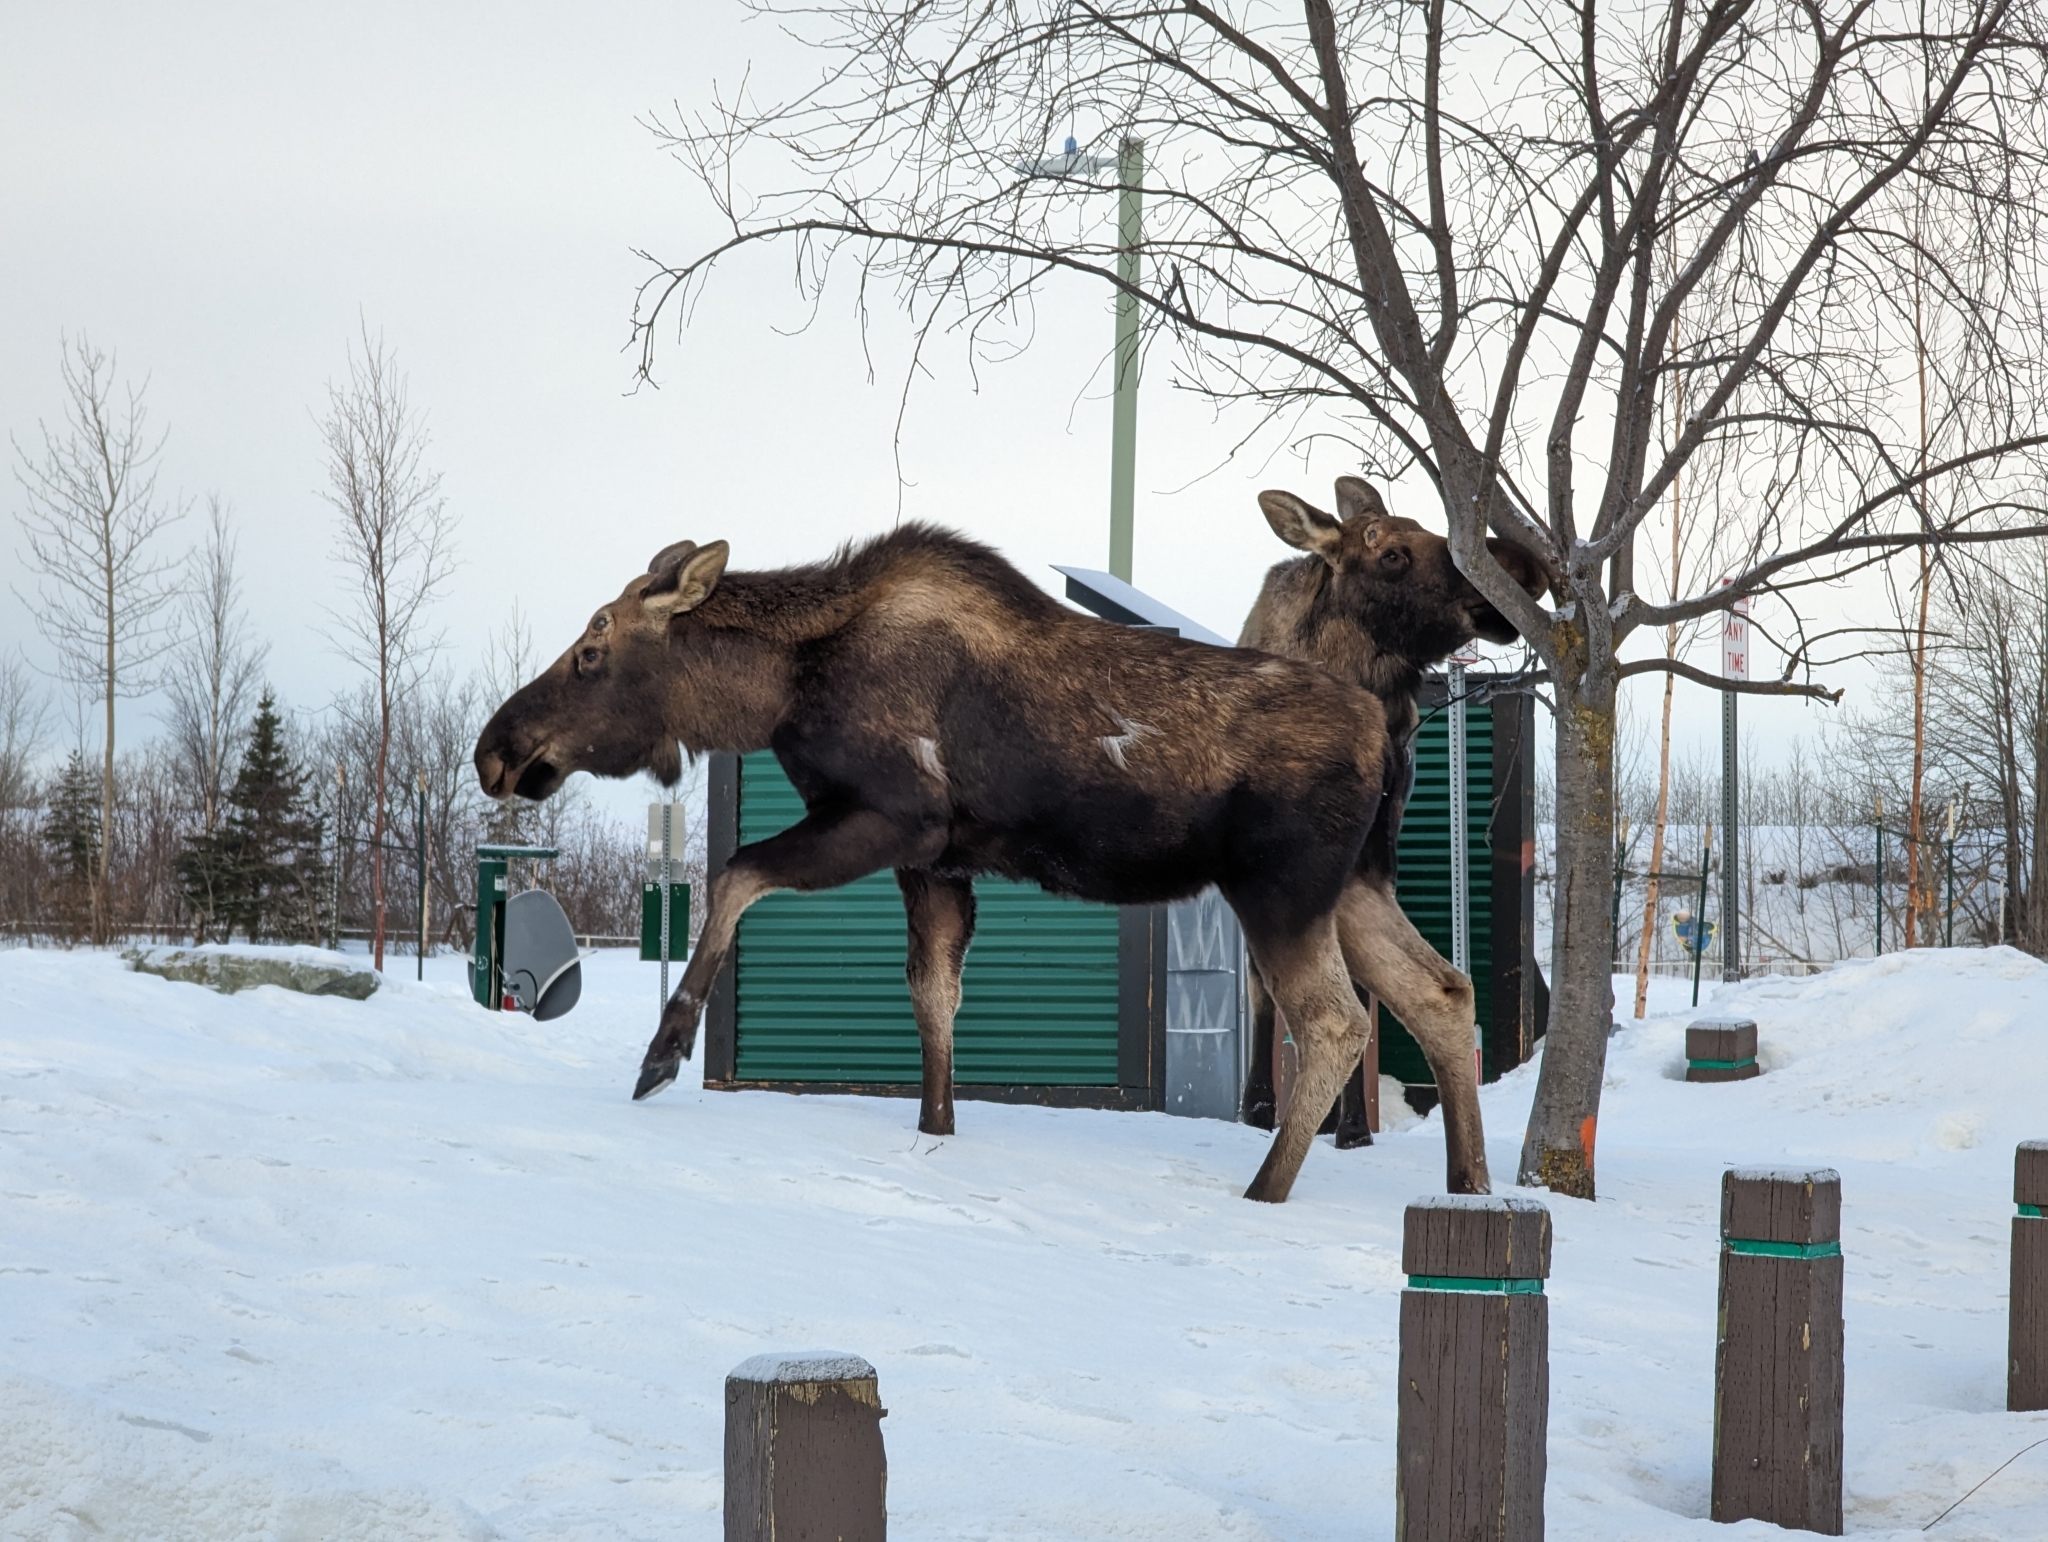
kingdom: Animalia
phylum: Chordata
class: Mammalia
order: Artiodactyla
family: Cervidae
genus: Alces
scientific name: Alces alces
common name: Moose
